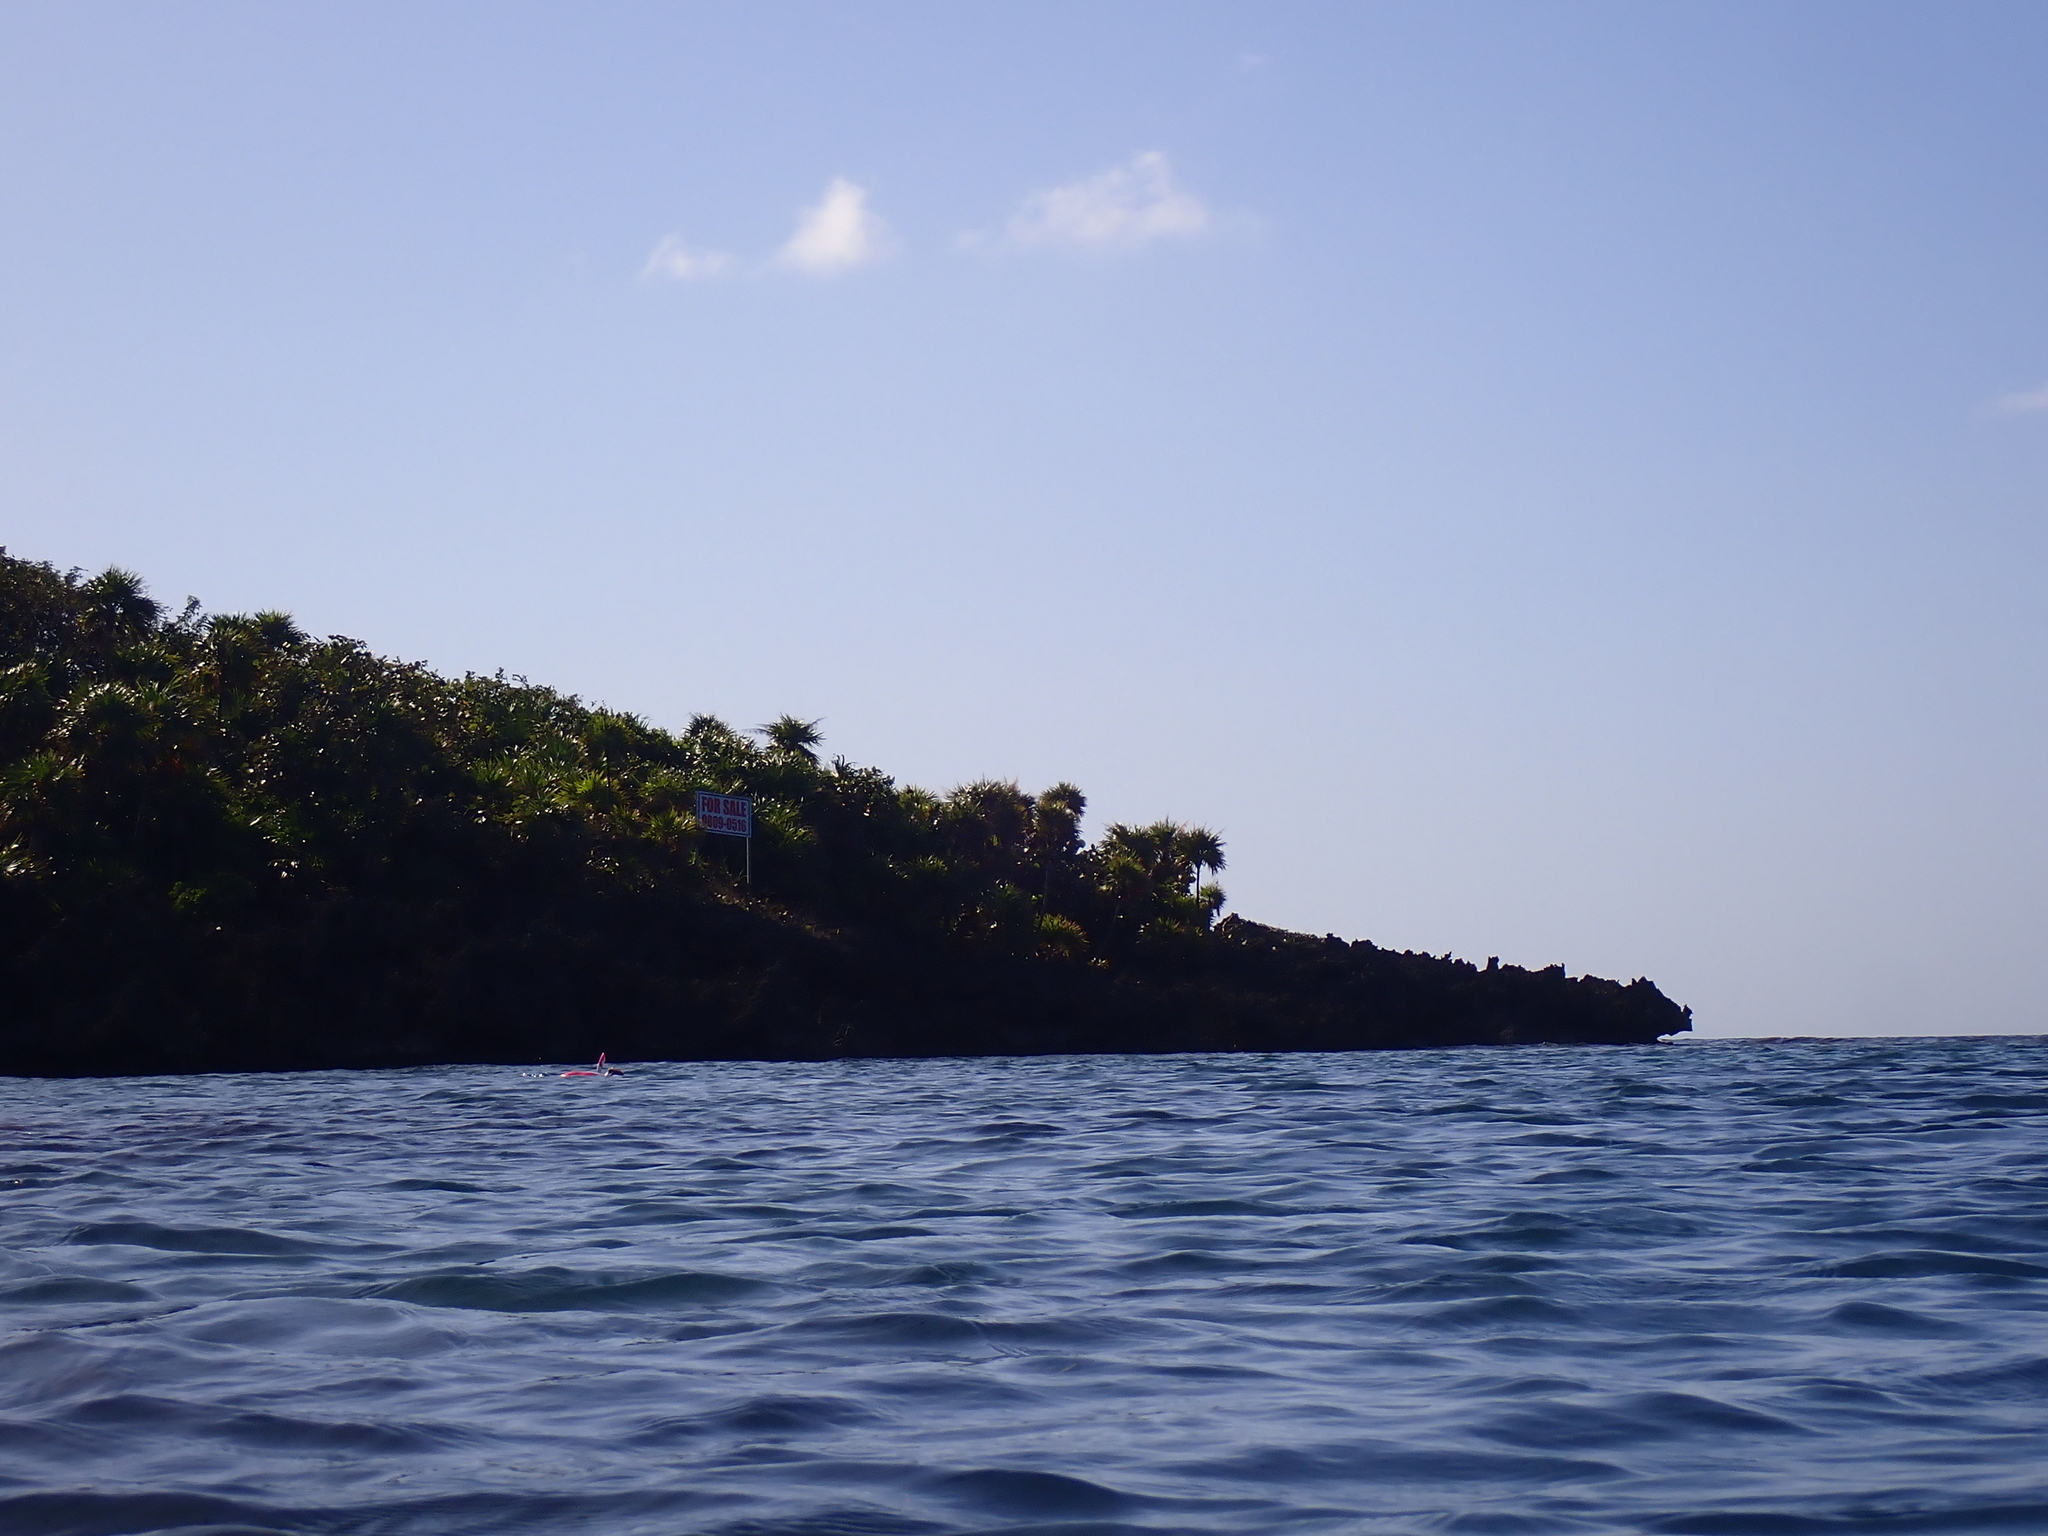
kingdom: Animalia
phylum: Chordata
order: Perciformes
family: Acanthuridae
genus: Acanthurus
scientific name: Acanthurus coeruleus
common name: Blue tang
